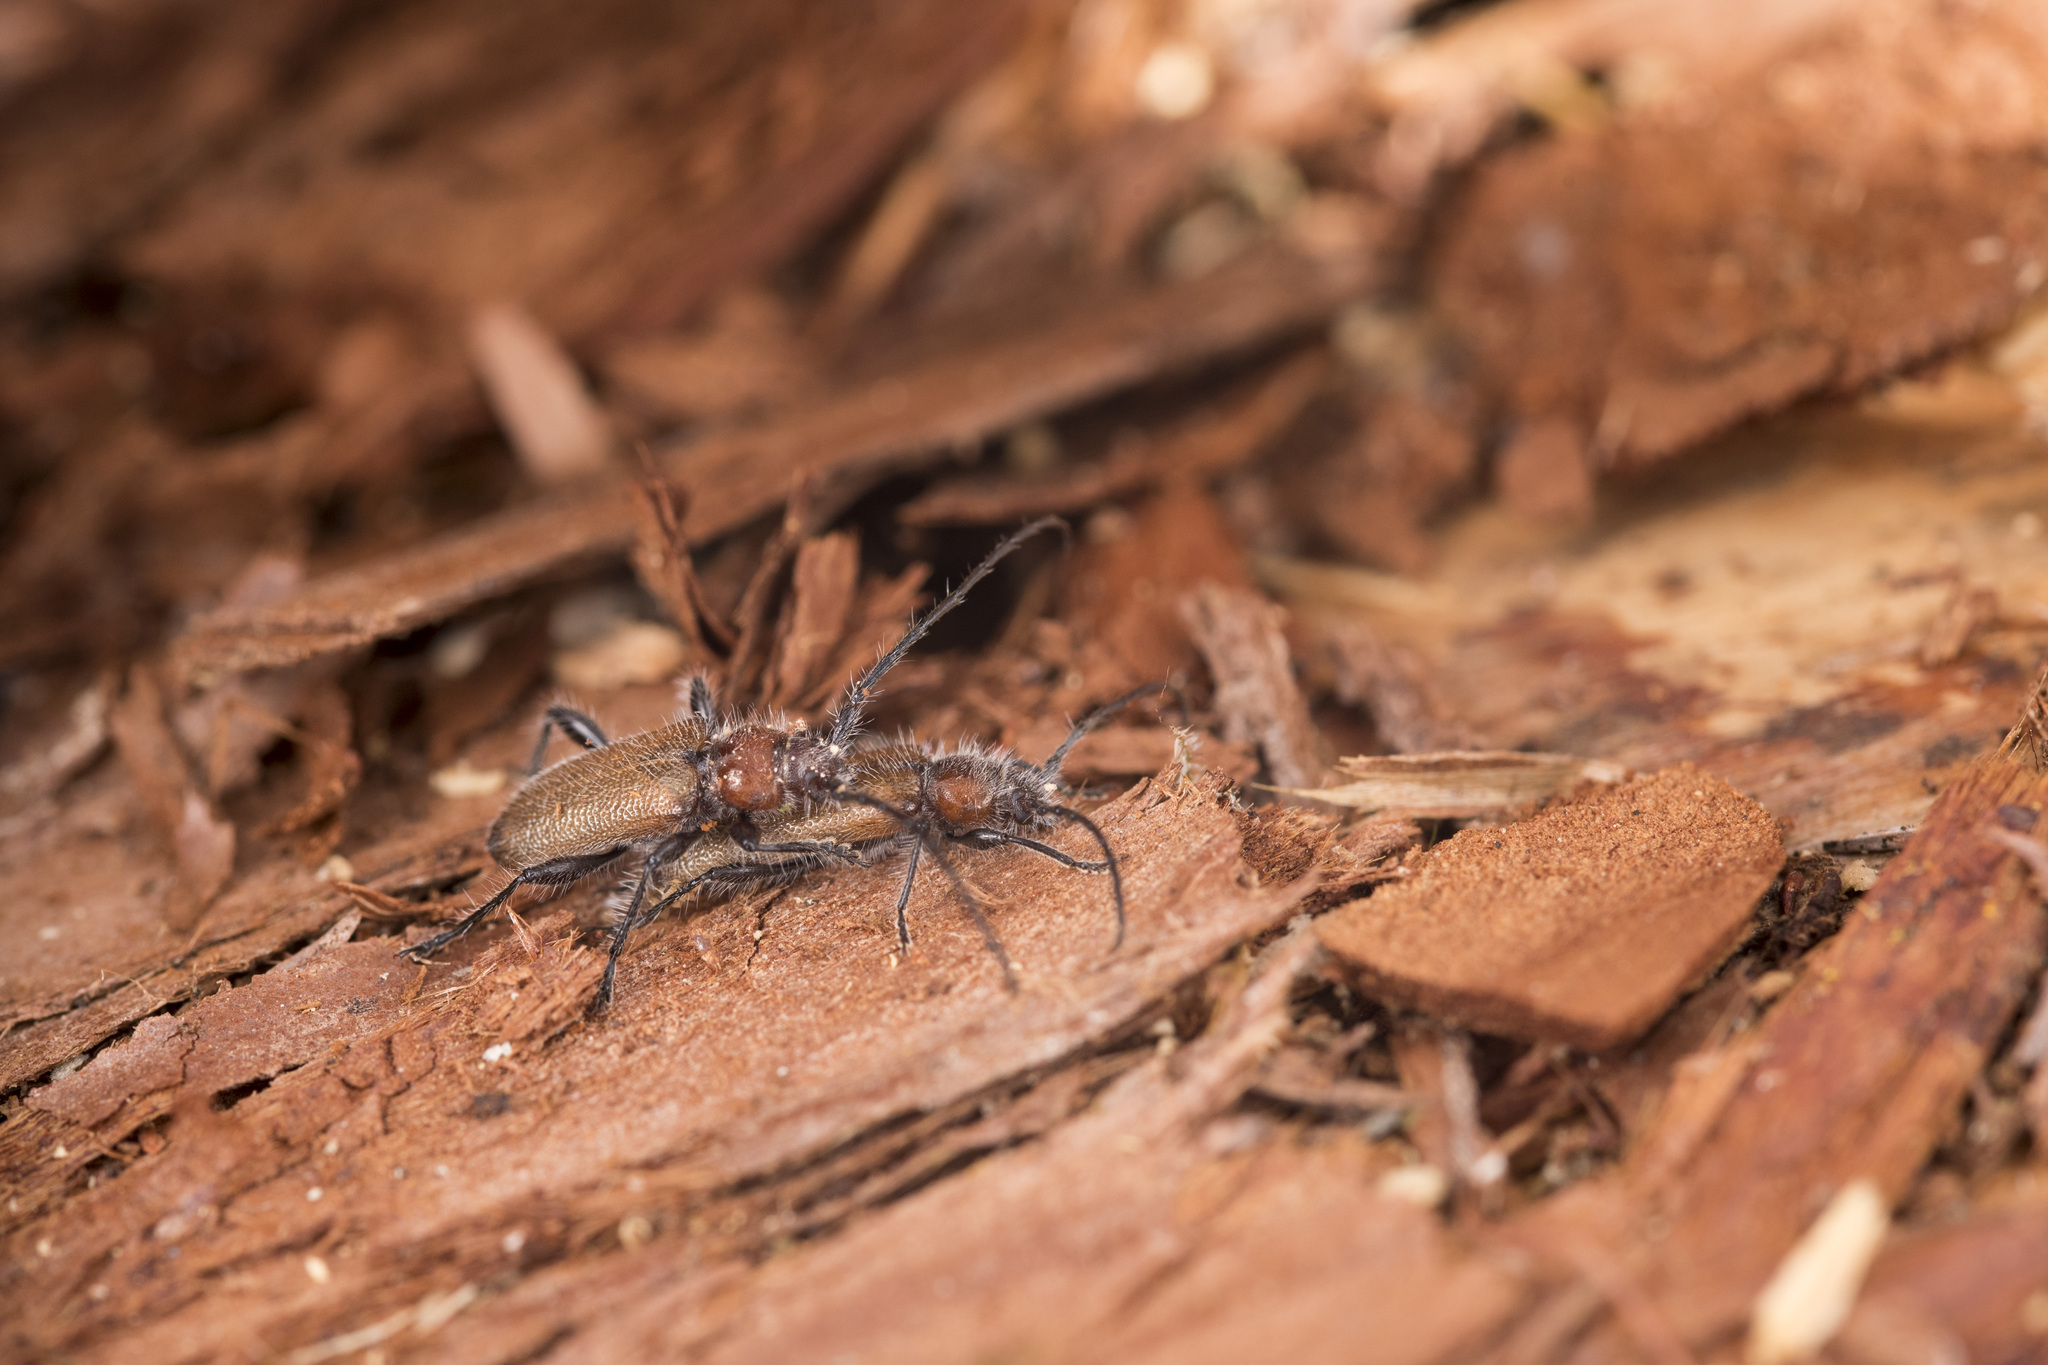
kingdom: Animalia
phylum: Arthropoda
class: Insecta
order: Coleoptera
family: Cerambycidae
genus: Callidiellum
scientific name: Callidiellum villosulum
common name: Longhorn beetle
